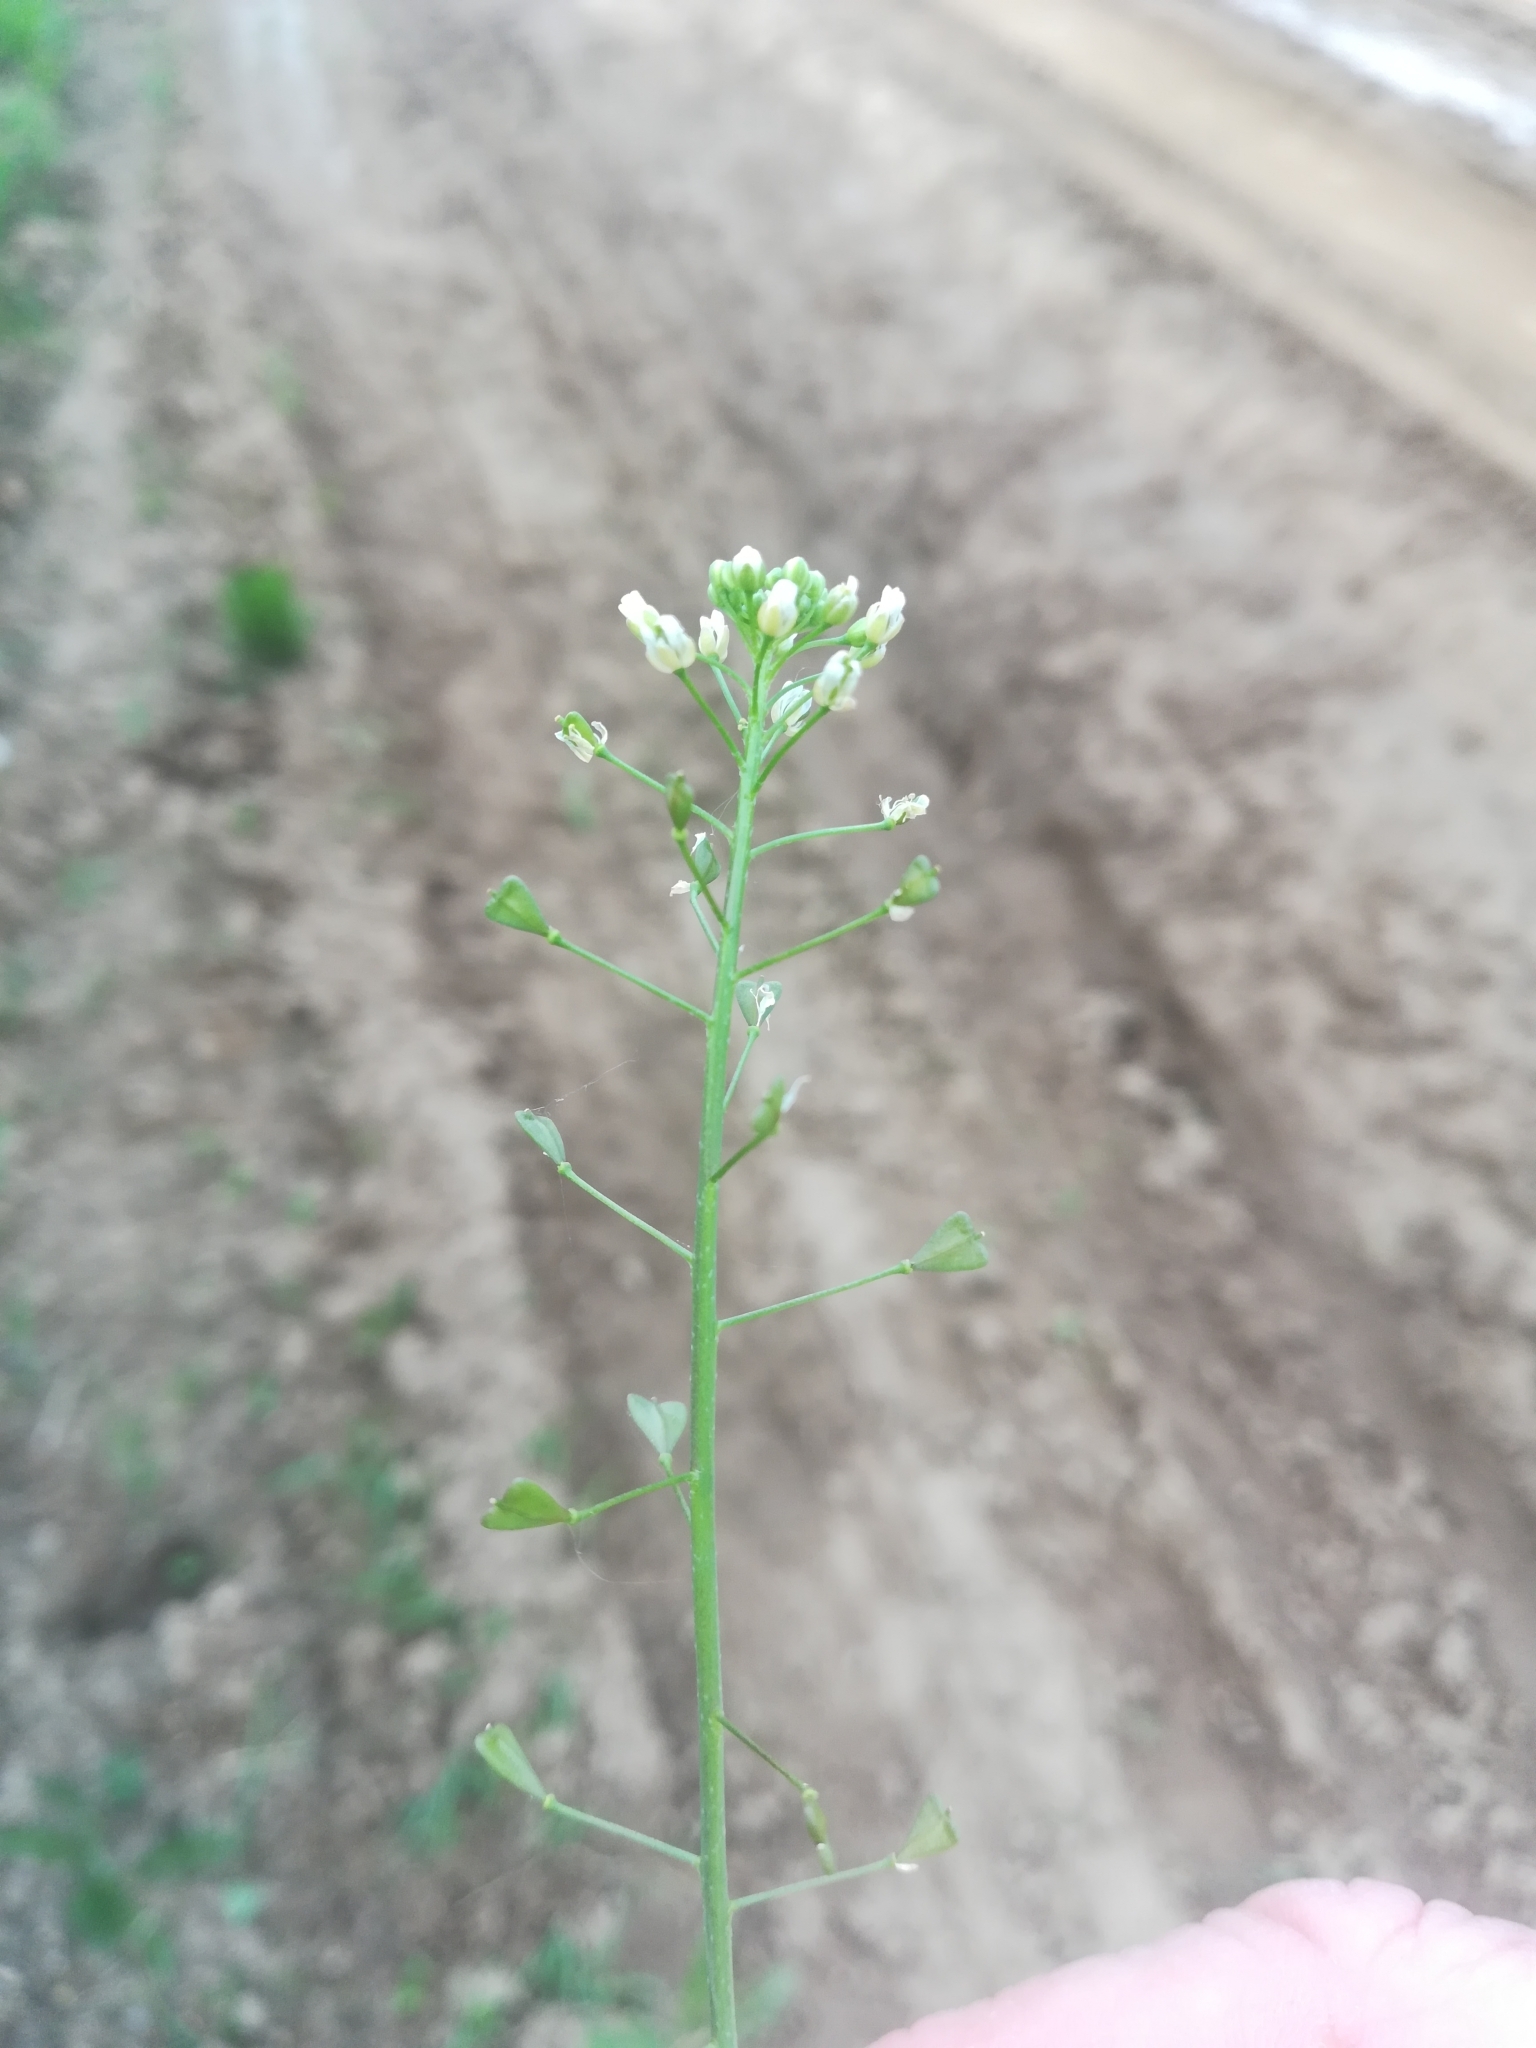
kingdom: Plantae
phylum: Tracheophyta
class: Magnoliopsida
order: Brassicales
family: Brassicaceae
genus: Capsella
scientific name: Capsella bursa-pastoris
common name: Shepherd's purse
